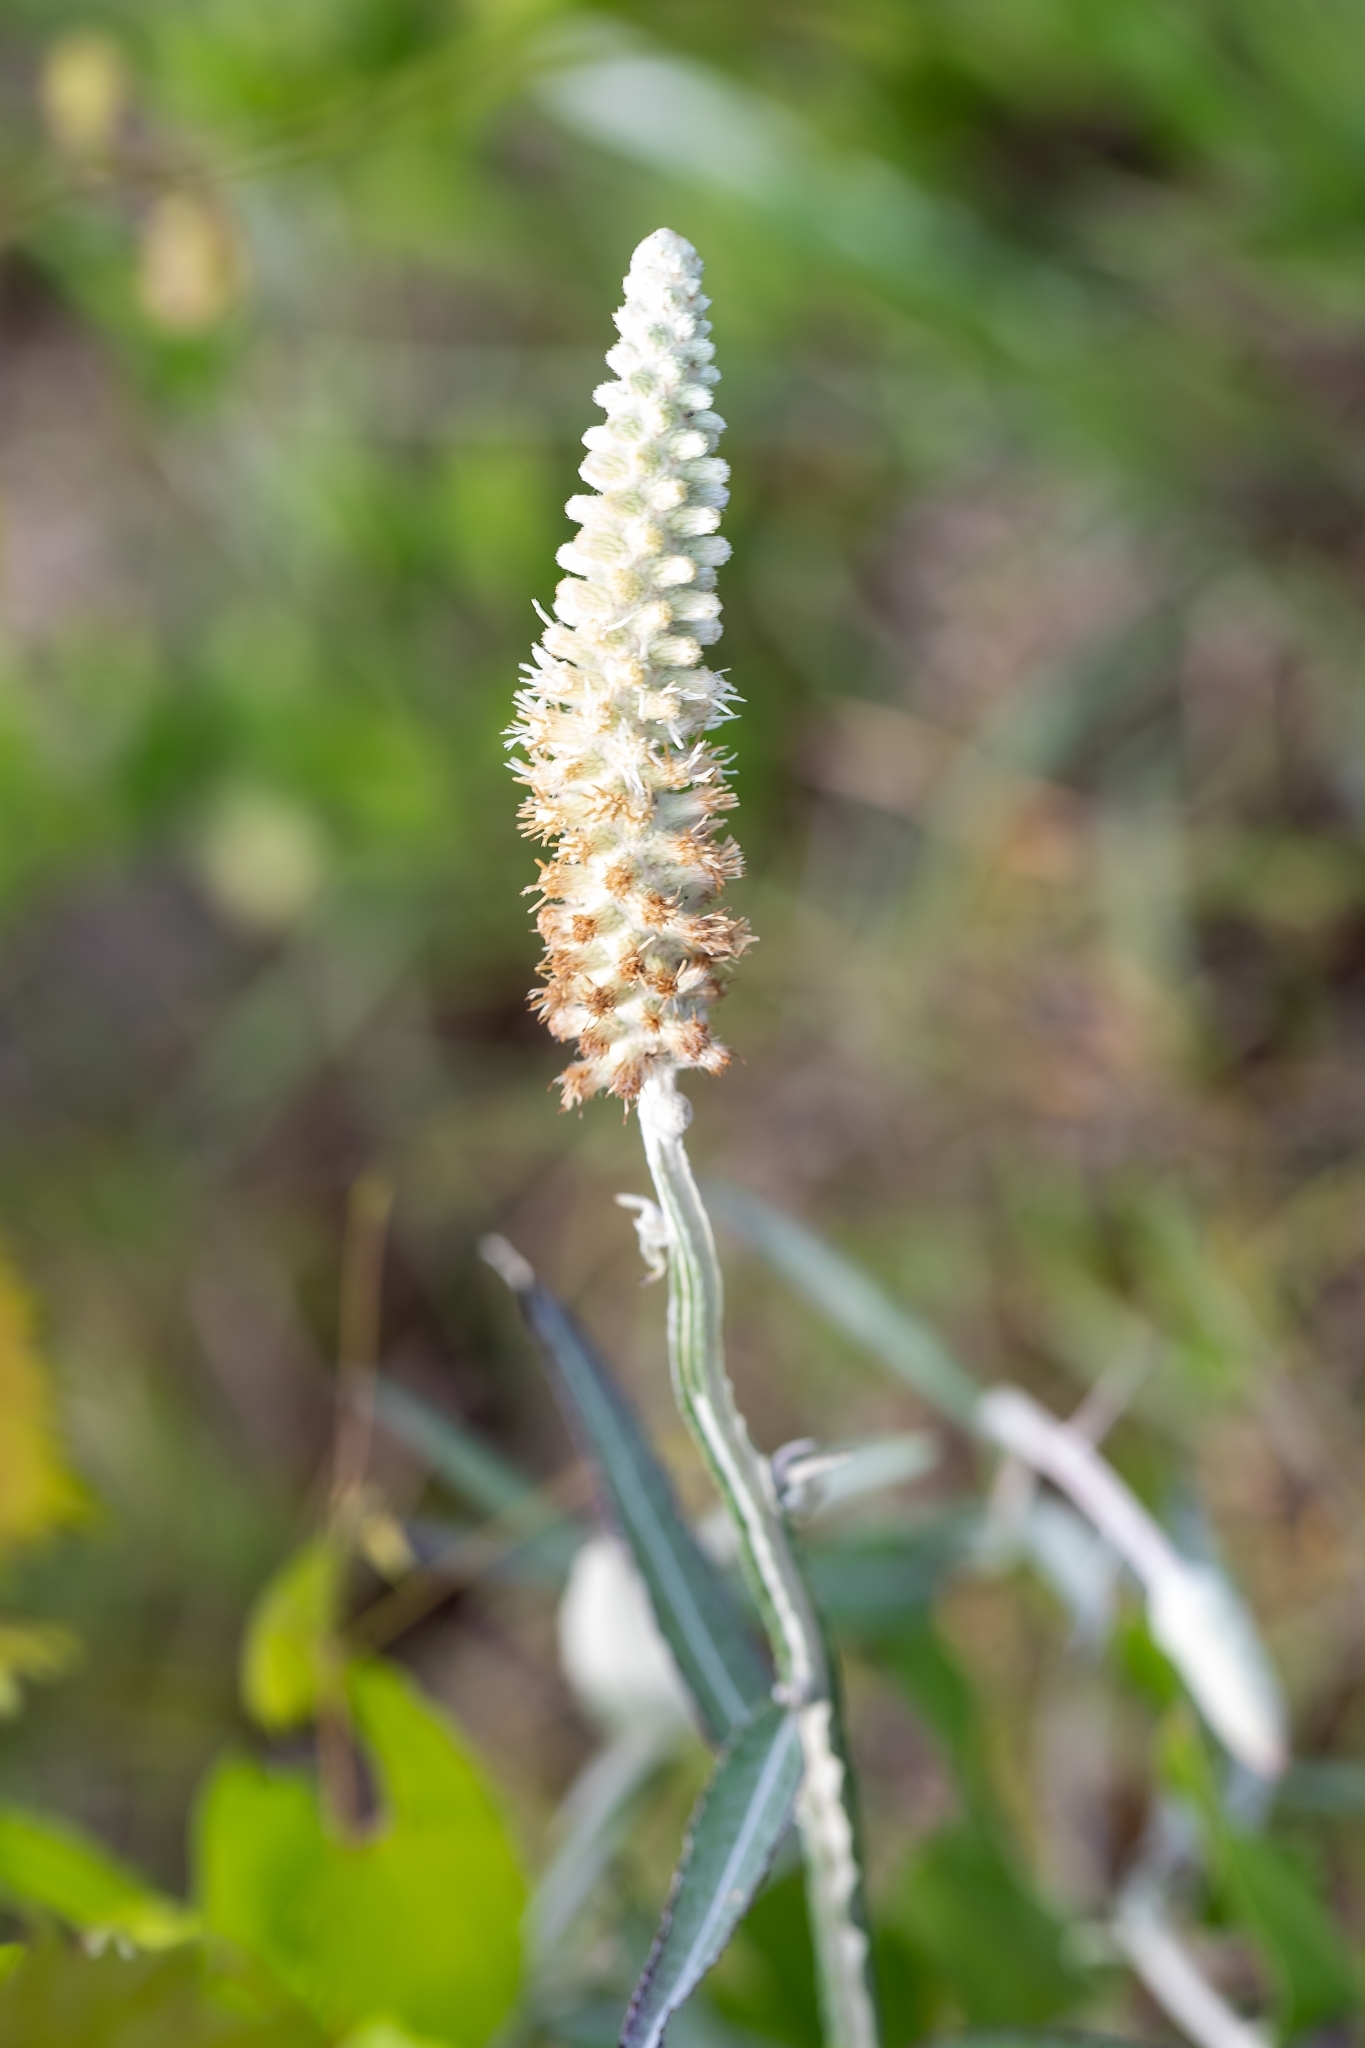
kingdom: Plantae
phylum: Tracheophyta
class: Magnoliopsida
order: Asterales
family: Asteraceae
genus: Pterocaulon
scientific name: Pterocaulon pycnostachyum
